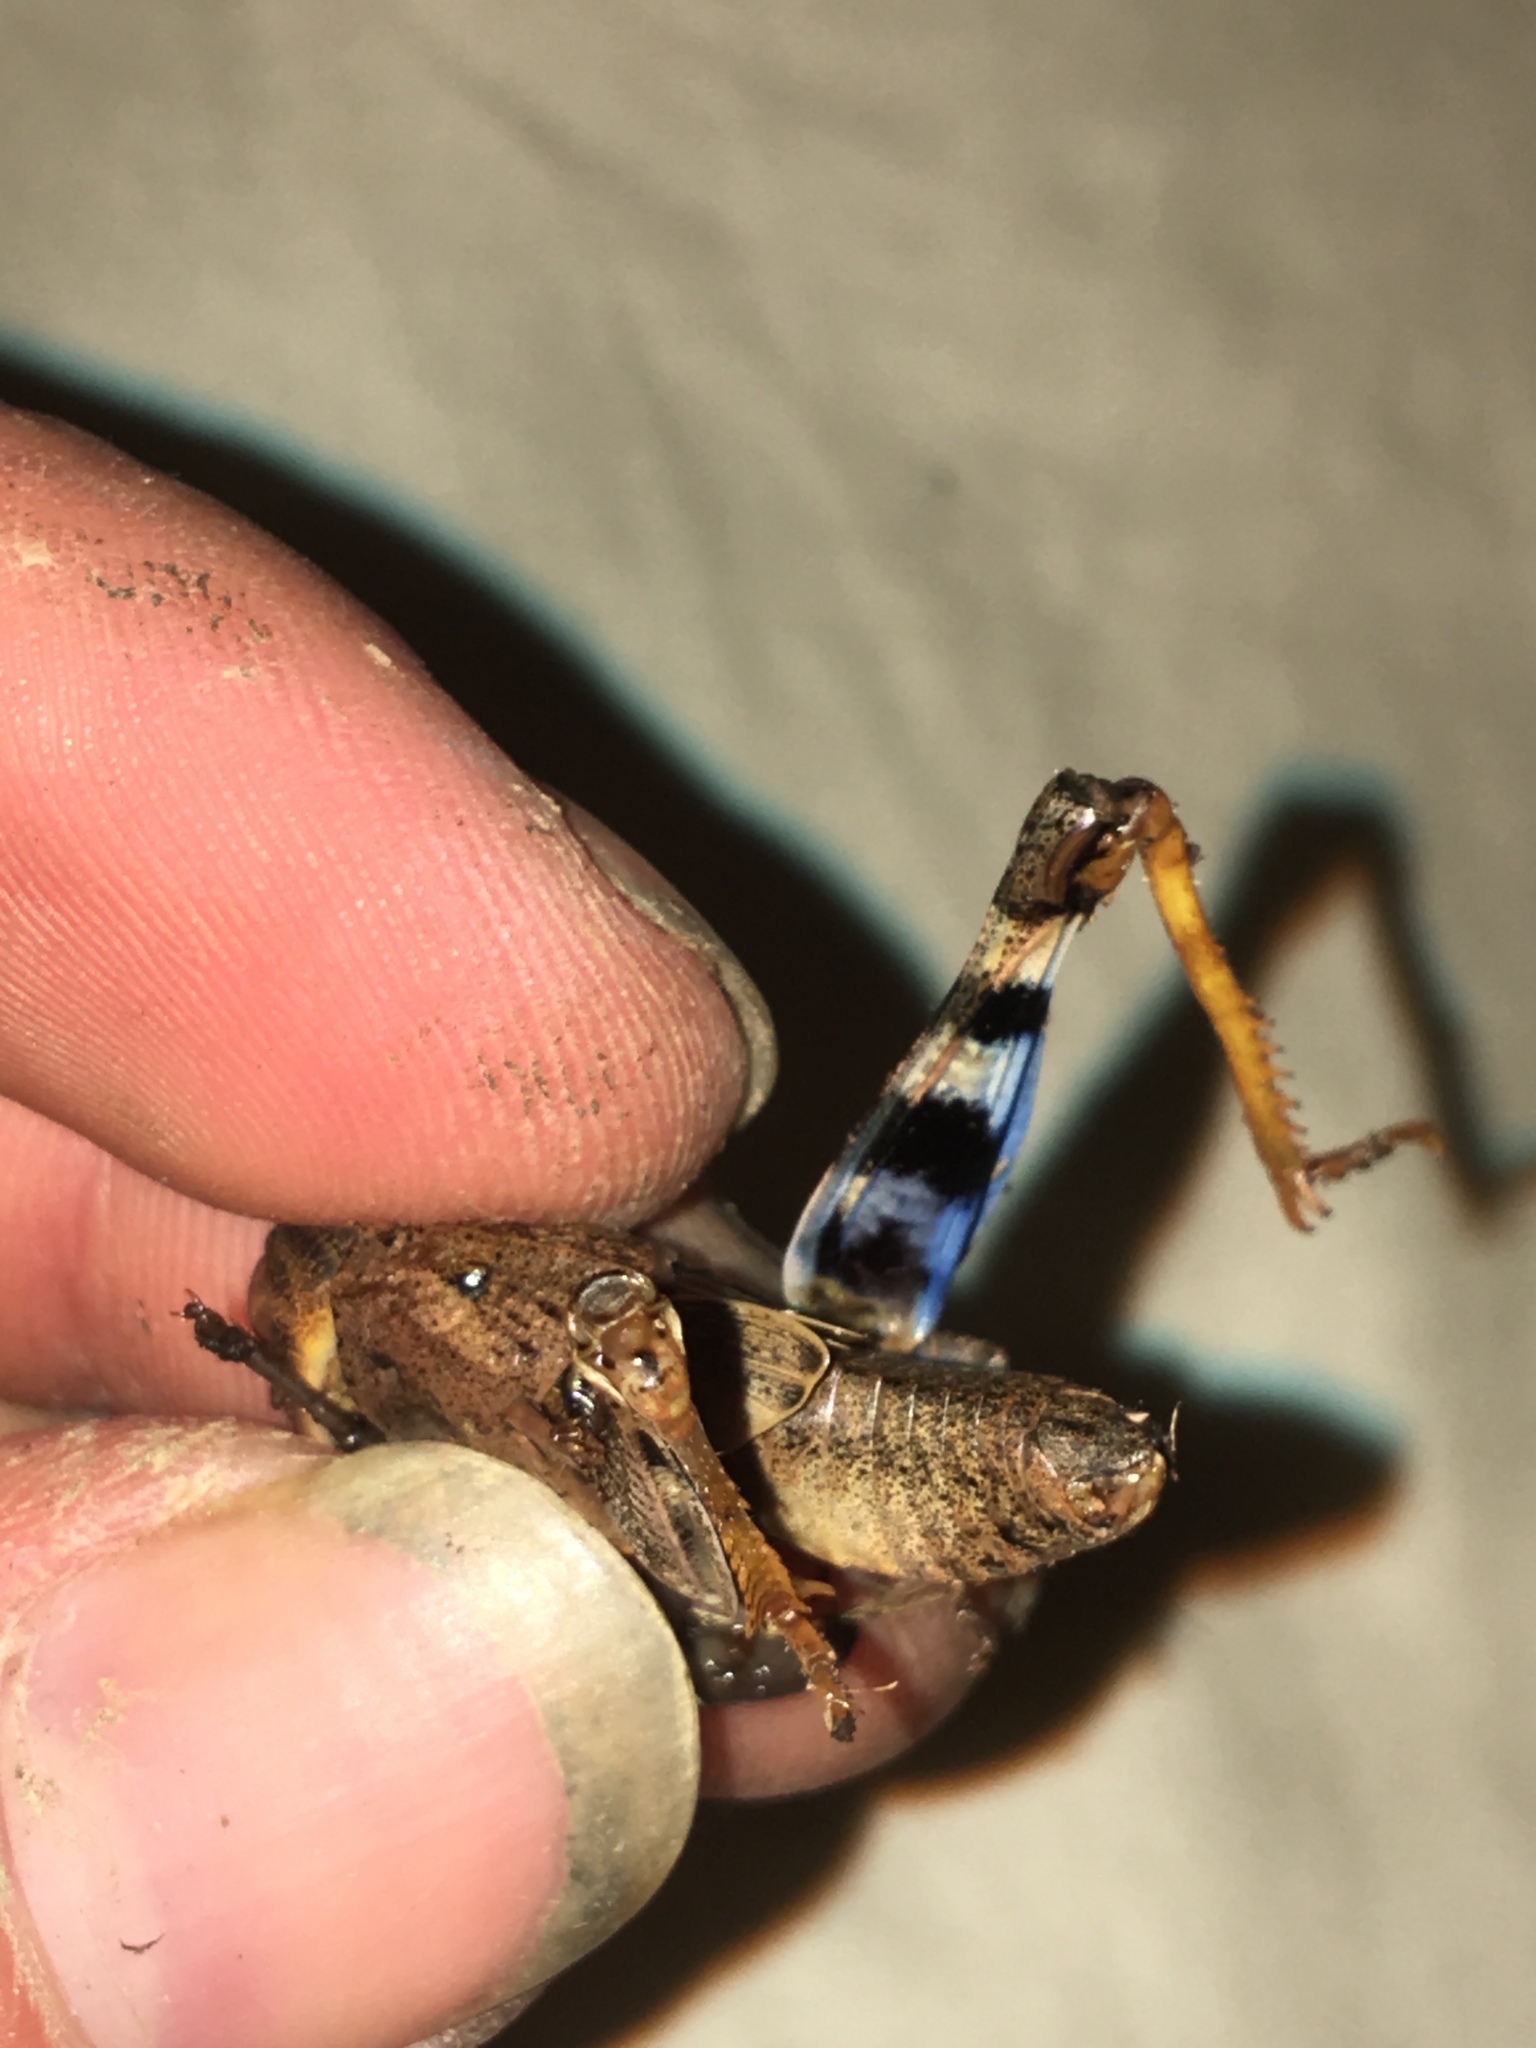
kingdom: Animalia
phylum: Arthropoda
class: Insecta
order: Orthoptera
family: Acrididae
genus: Hippiscus
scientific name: Hippiscus ocelote
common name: Wrinkled grasshopper
